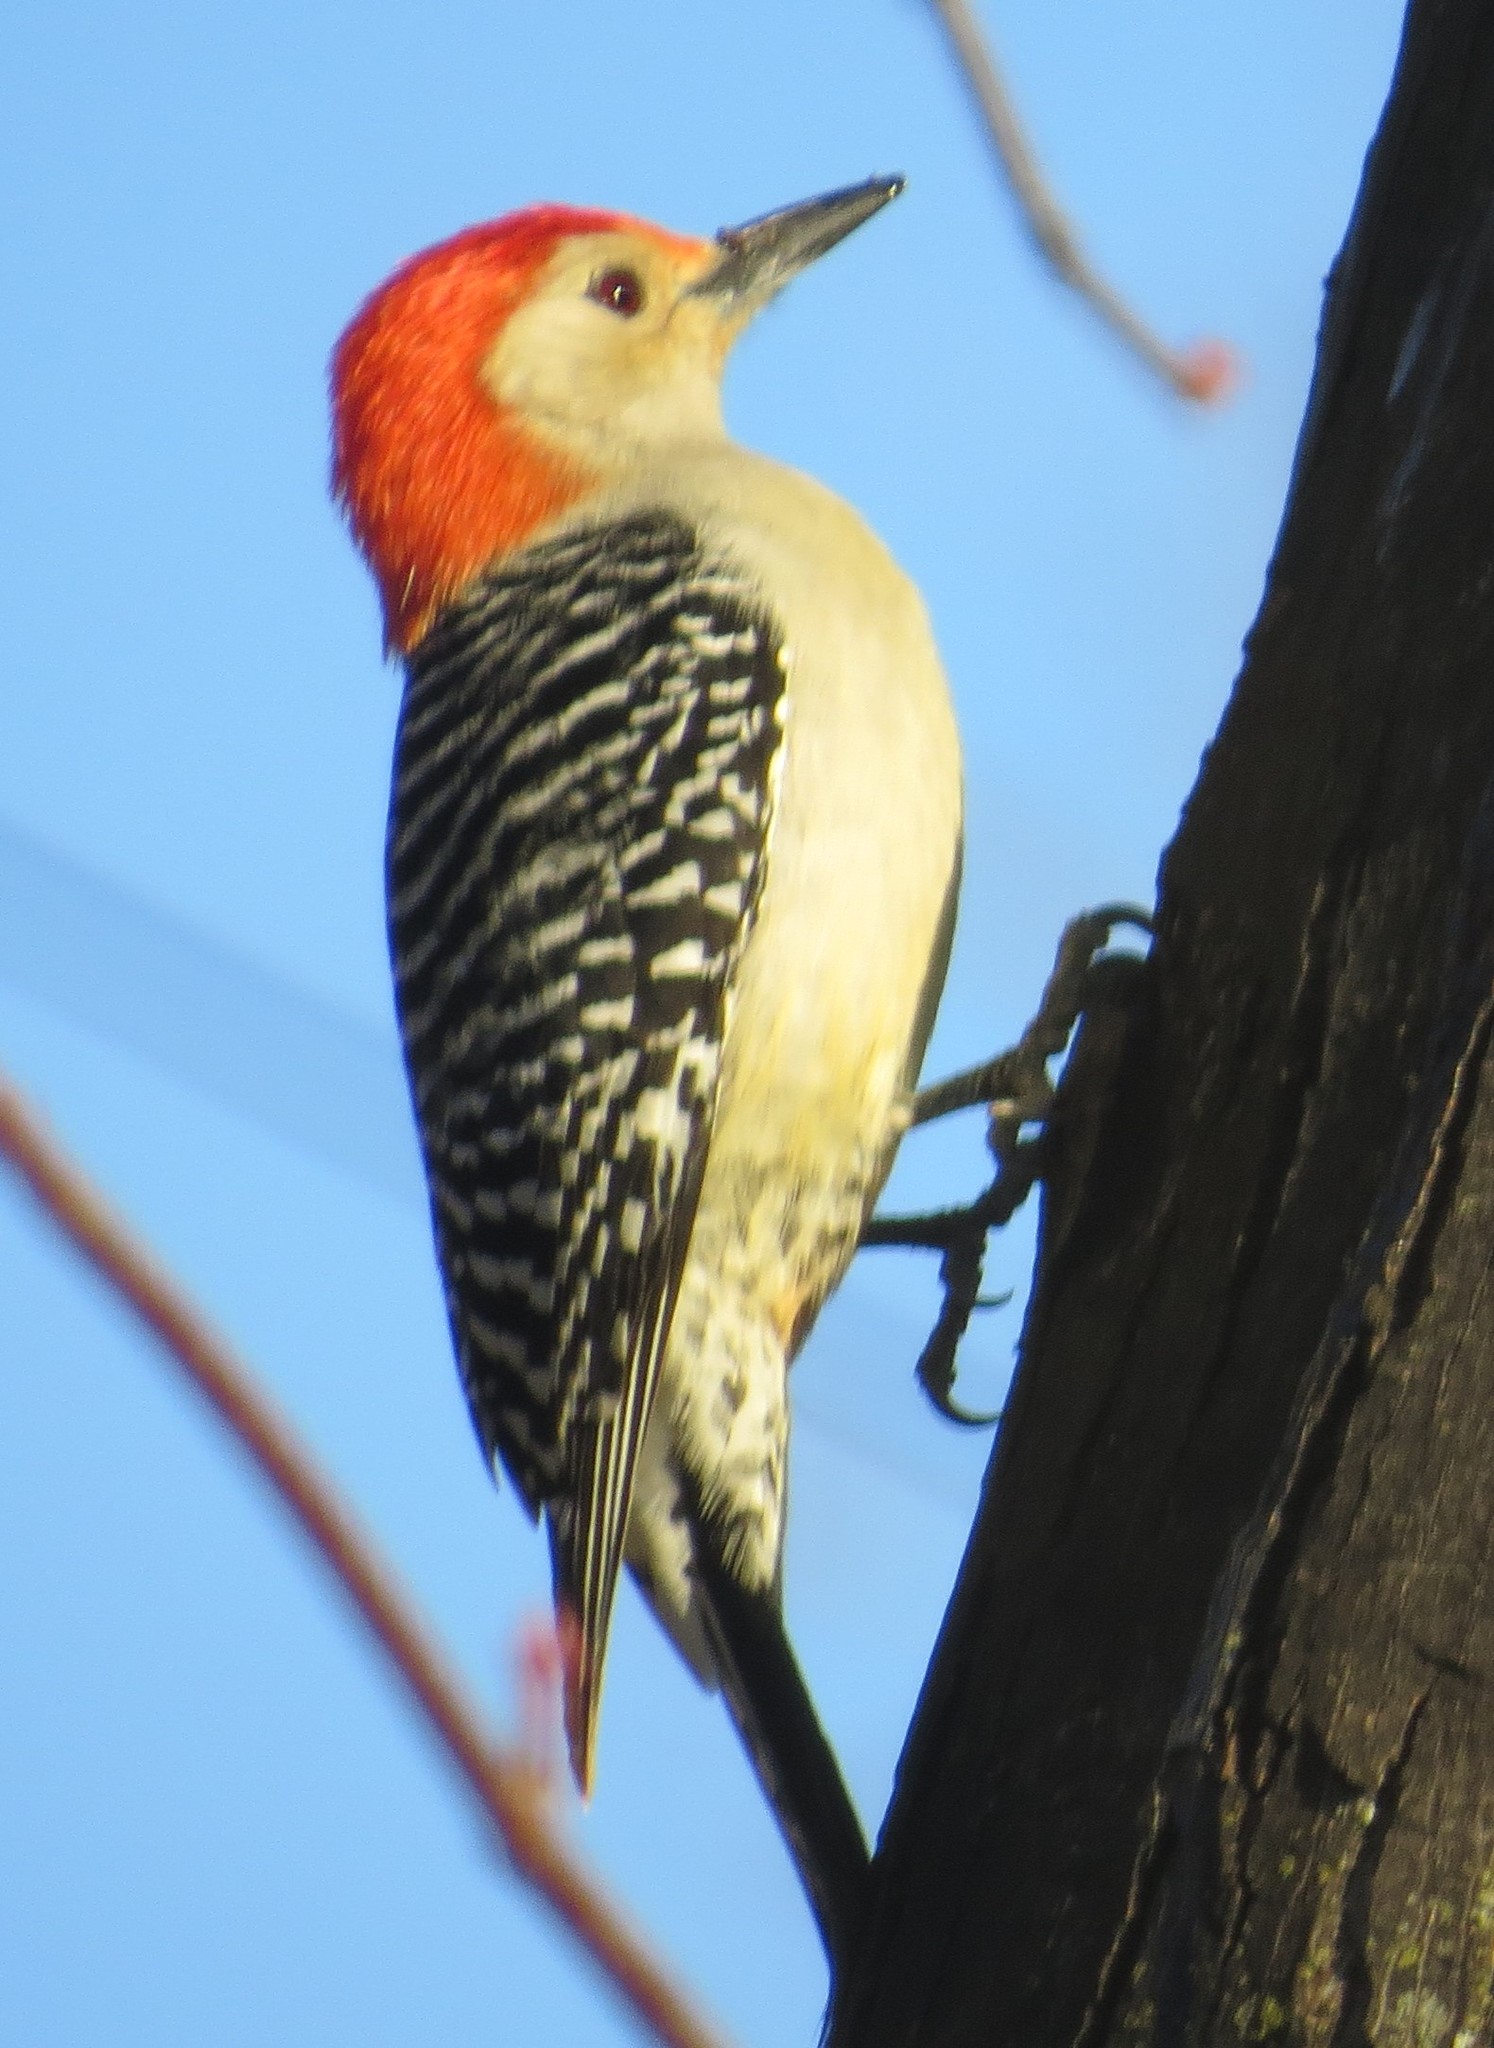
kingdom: Animalia
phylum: Chordata
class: Aves
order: Piciformes
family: Picidae
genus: Melanerpes
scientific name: Melanerpes carolinus
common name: Red-bellied woodpecker
